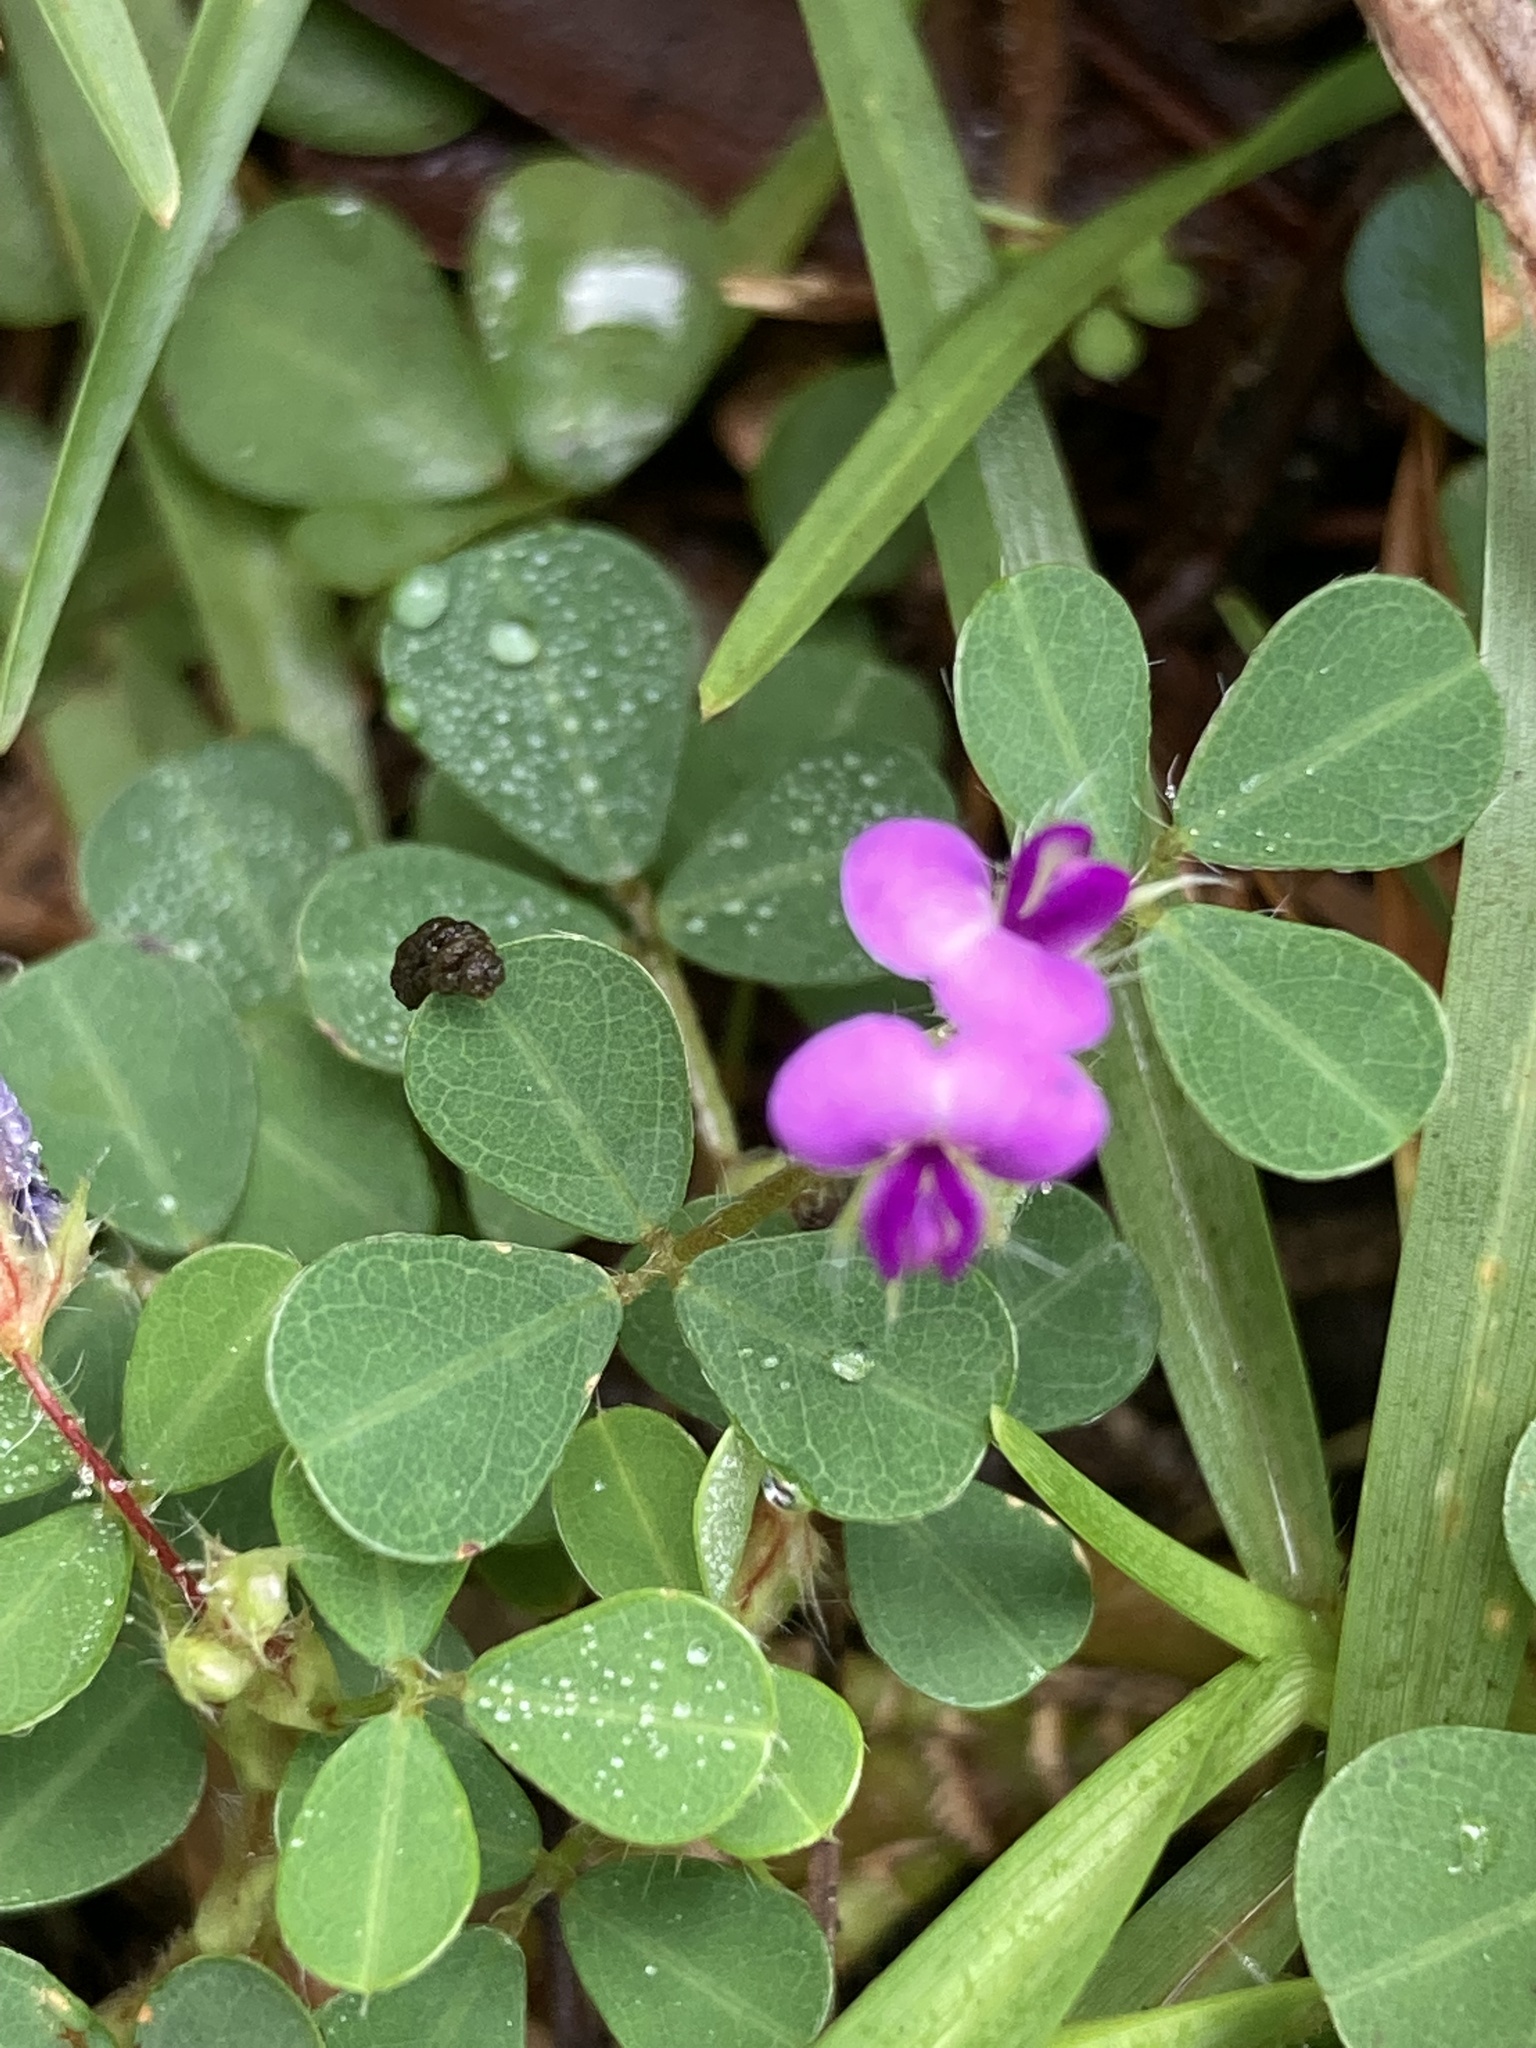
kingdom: Plantae
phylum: Tracheophyta
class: Magnoliopsida
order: Fabales
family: Fabaceae
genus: Grona
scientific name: Grona triflora
